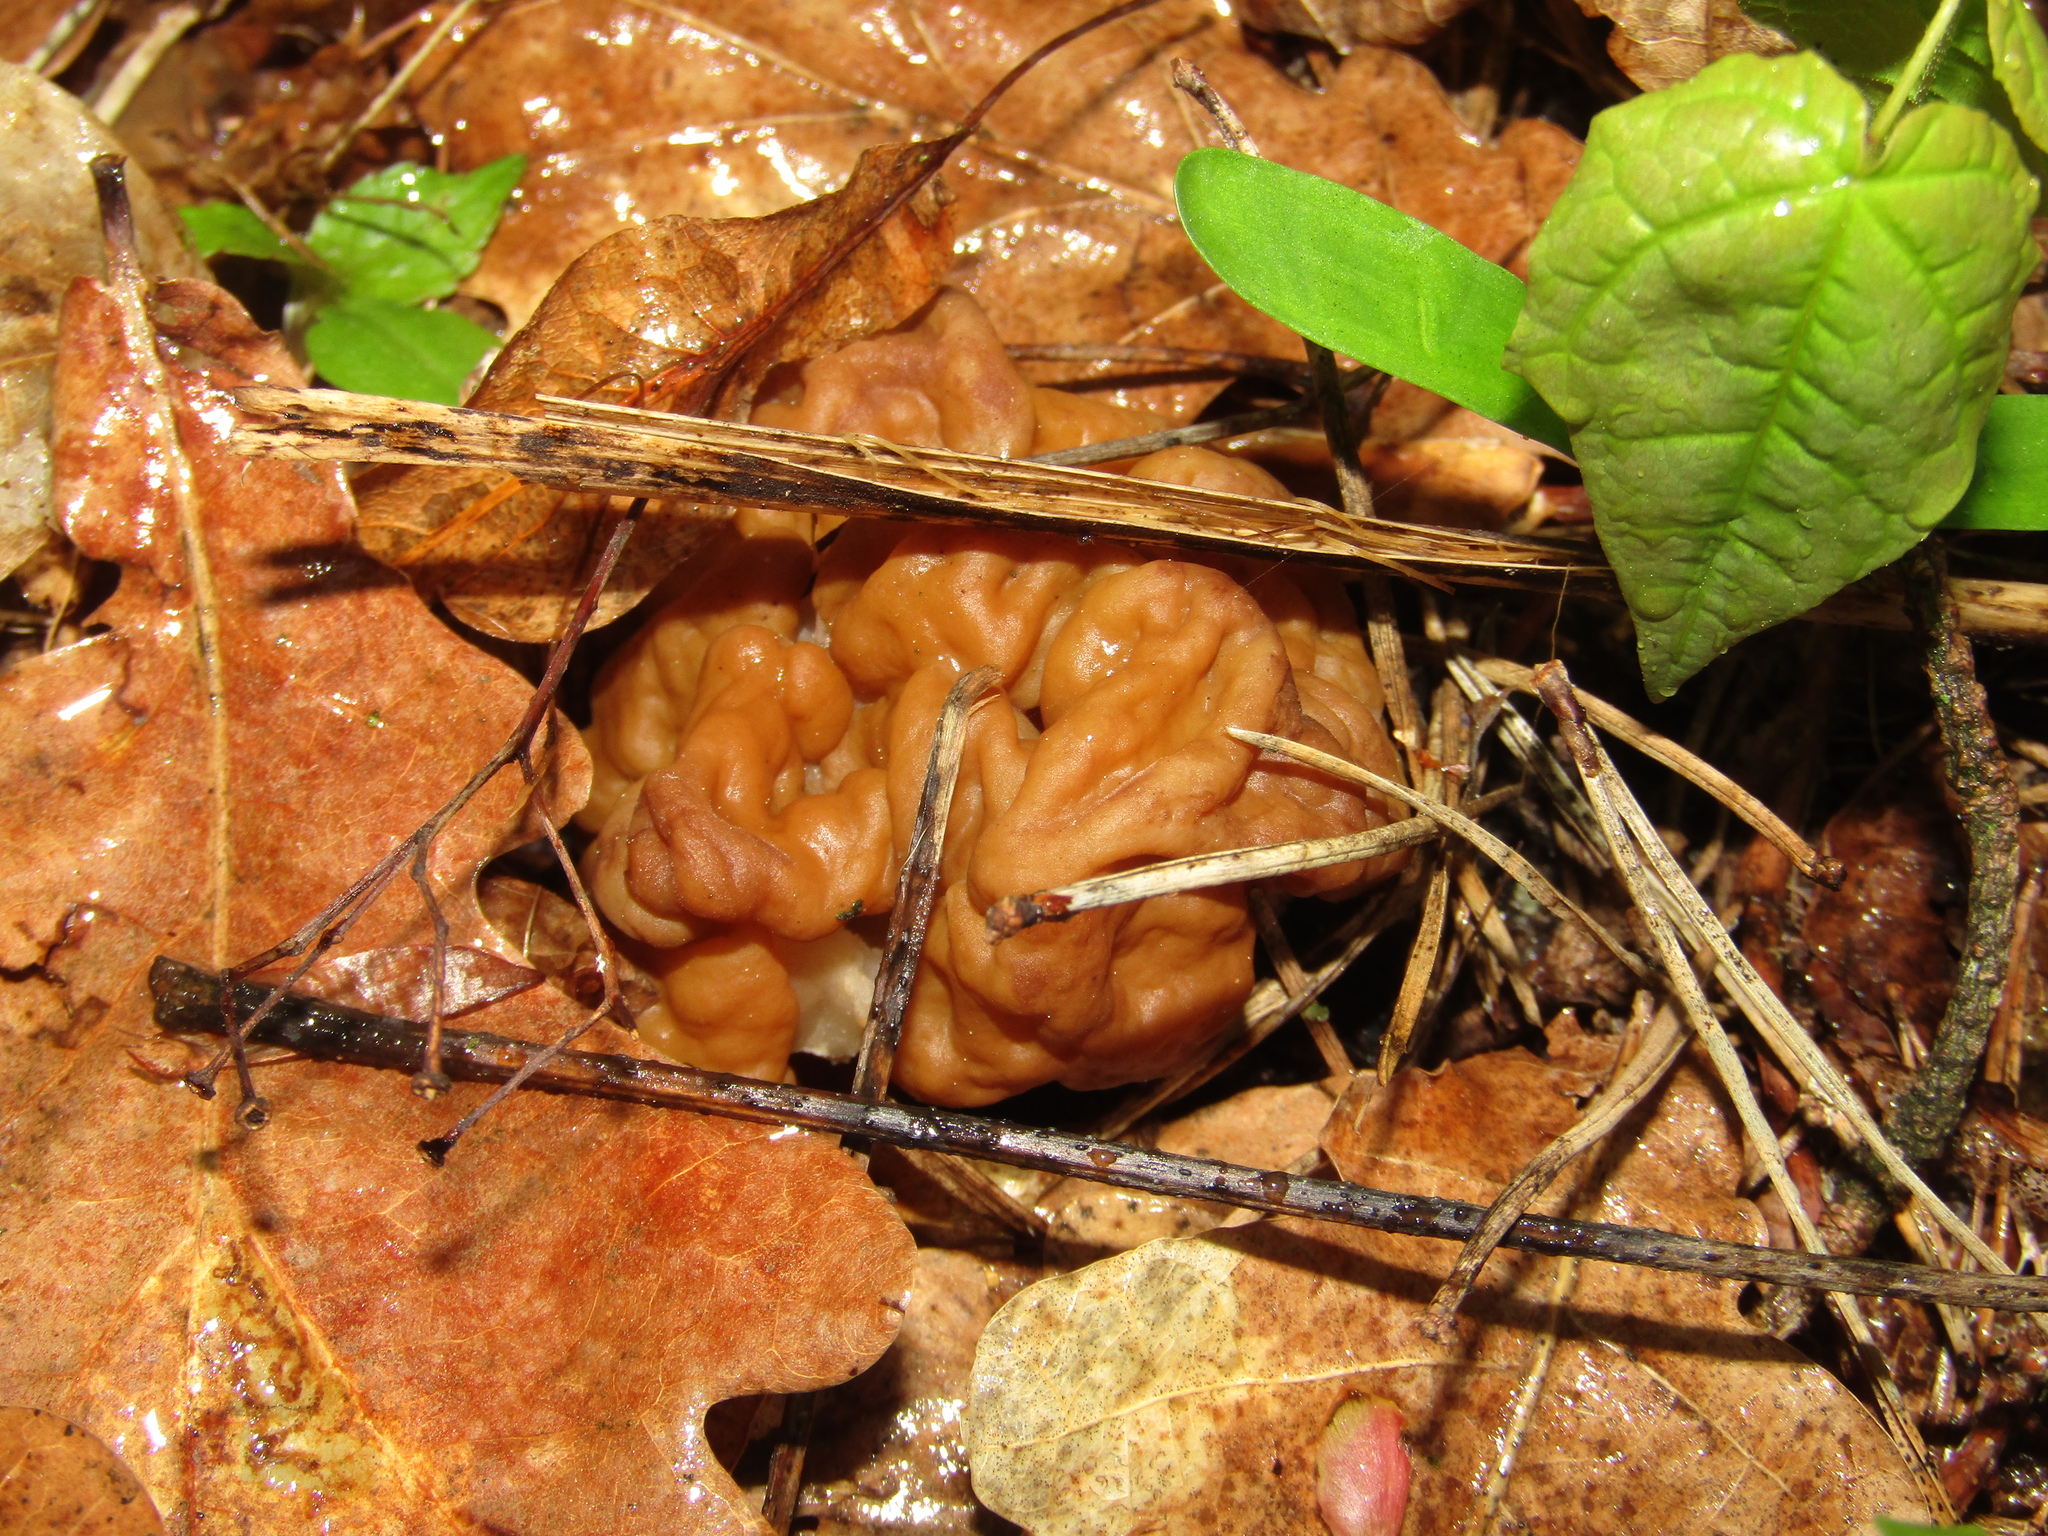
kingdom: Fungi
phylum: Ascomycota
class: Pezizomycetes
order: Pezizales
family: Discinaceae
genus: Gyromitra
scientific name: Gyromitra gigas
